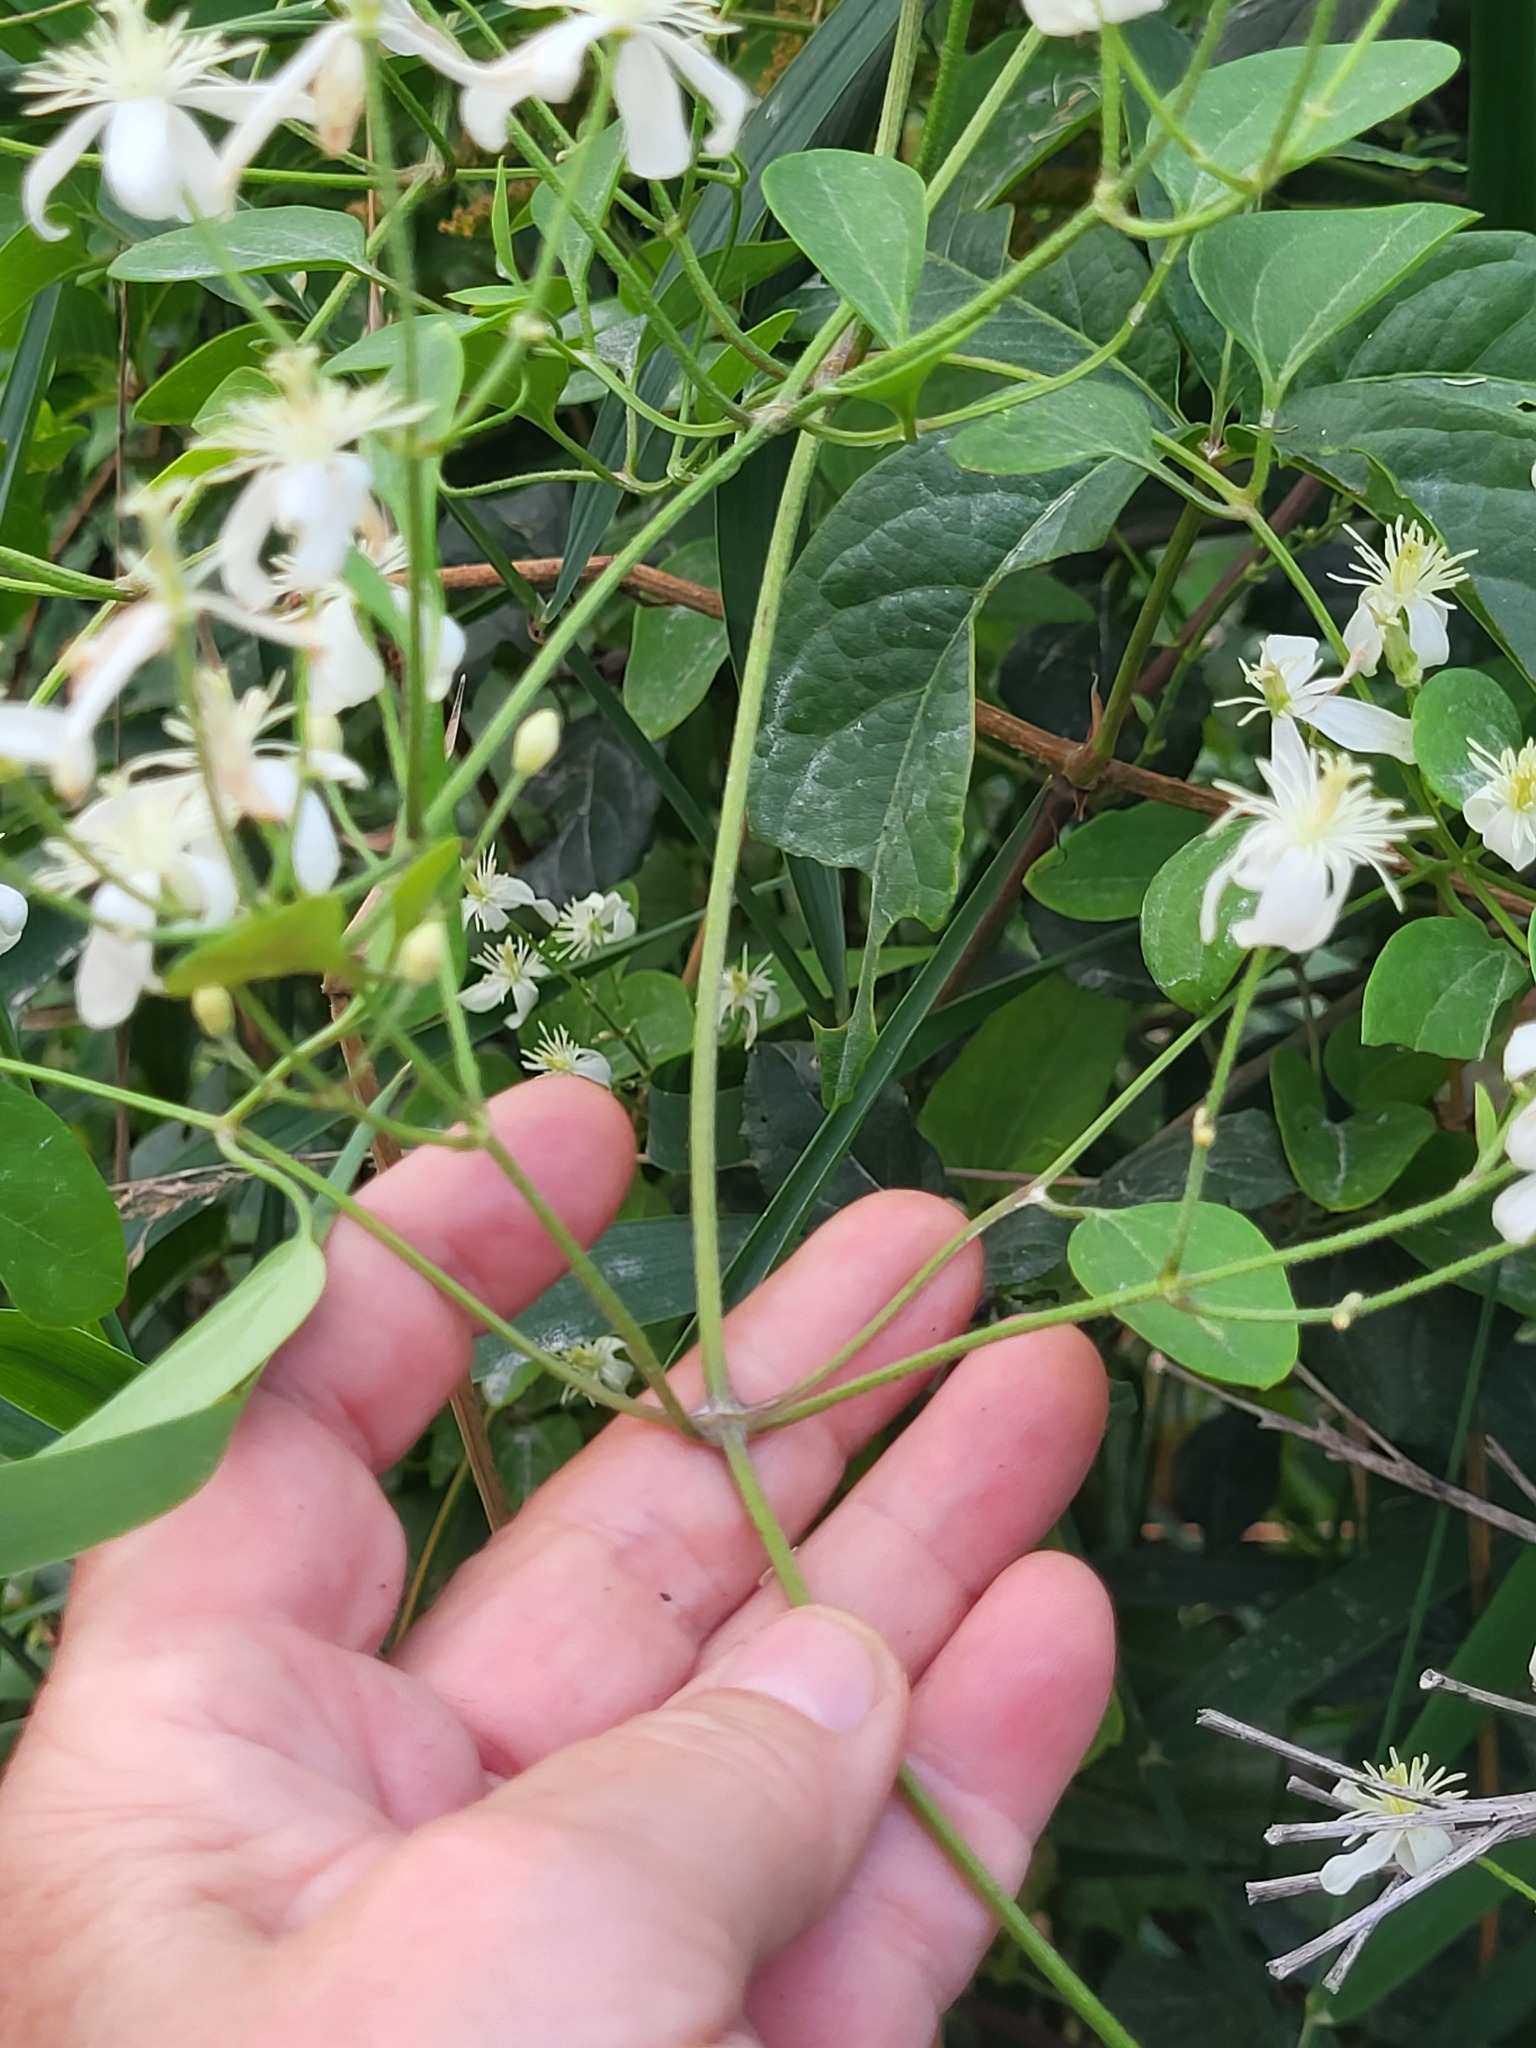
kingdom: Plantae
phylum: Tracheophyta
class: Magnoliopsida
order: Ranunculales
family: Ranunculaceae
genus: Clematis
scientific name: Clematis terniflora
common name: Sweet autumn clematis
